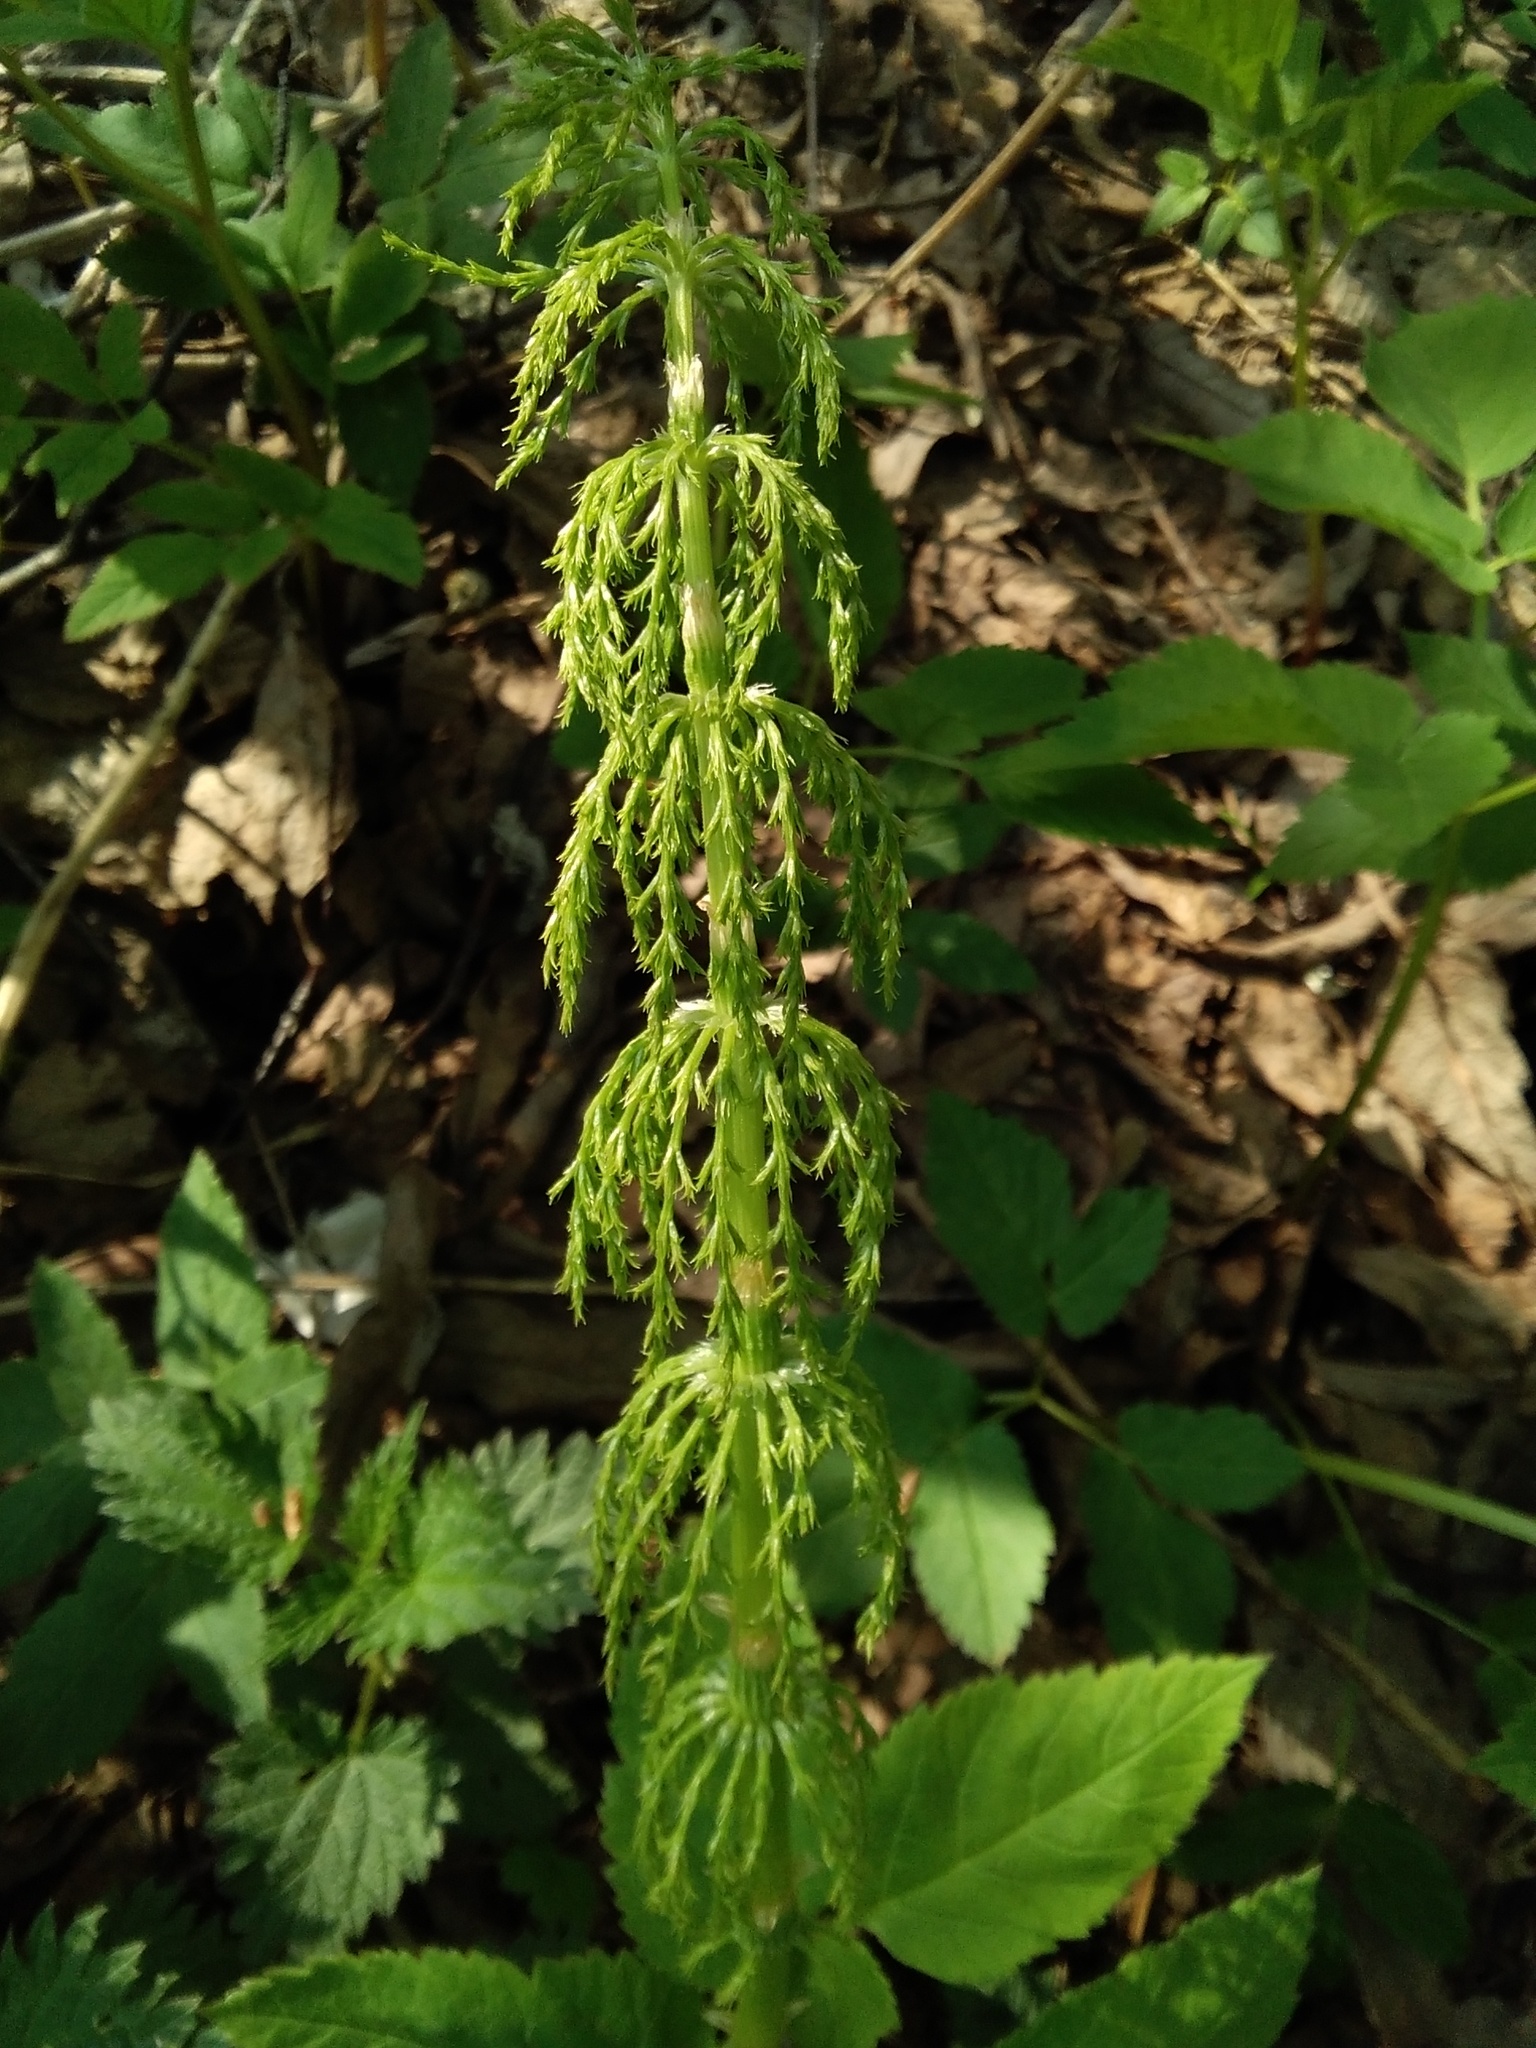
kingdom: Plantae
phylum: Tracheophyta
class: Polypodiopsida
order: Equisetales
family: Equisetaceae
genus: Equisetum
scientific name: Equisetum sylvaticum
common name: Wood horsetail
